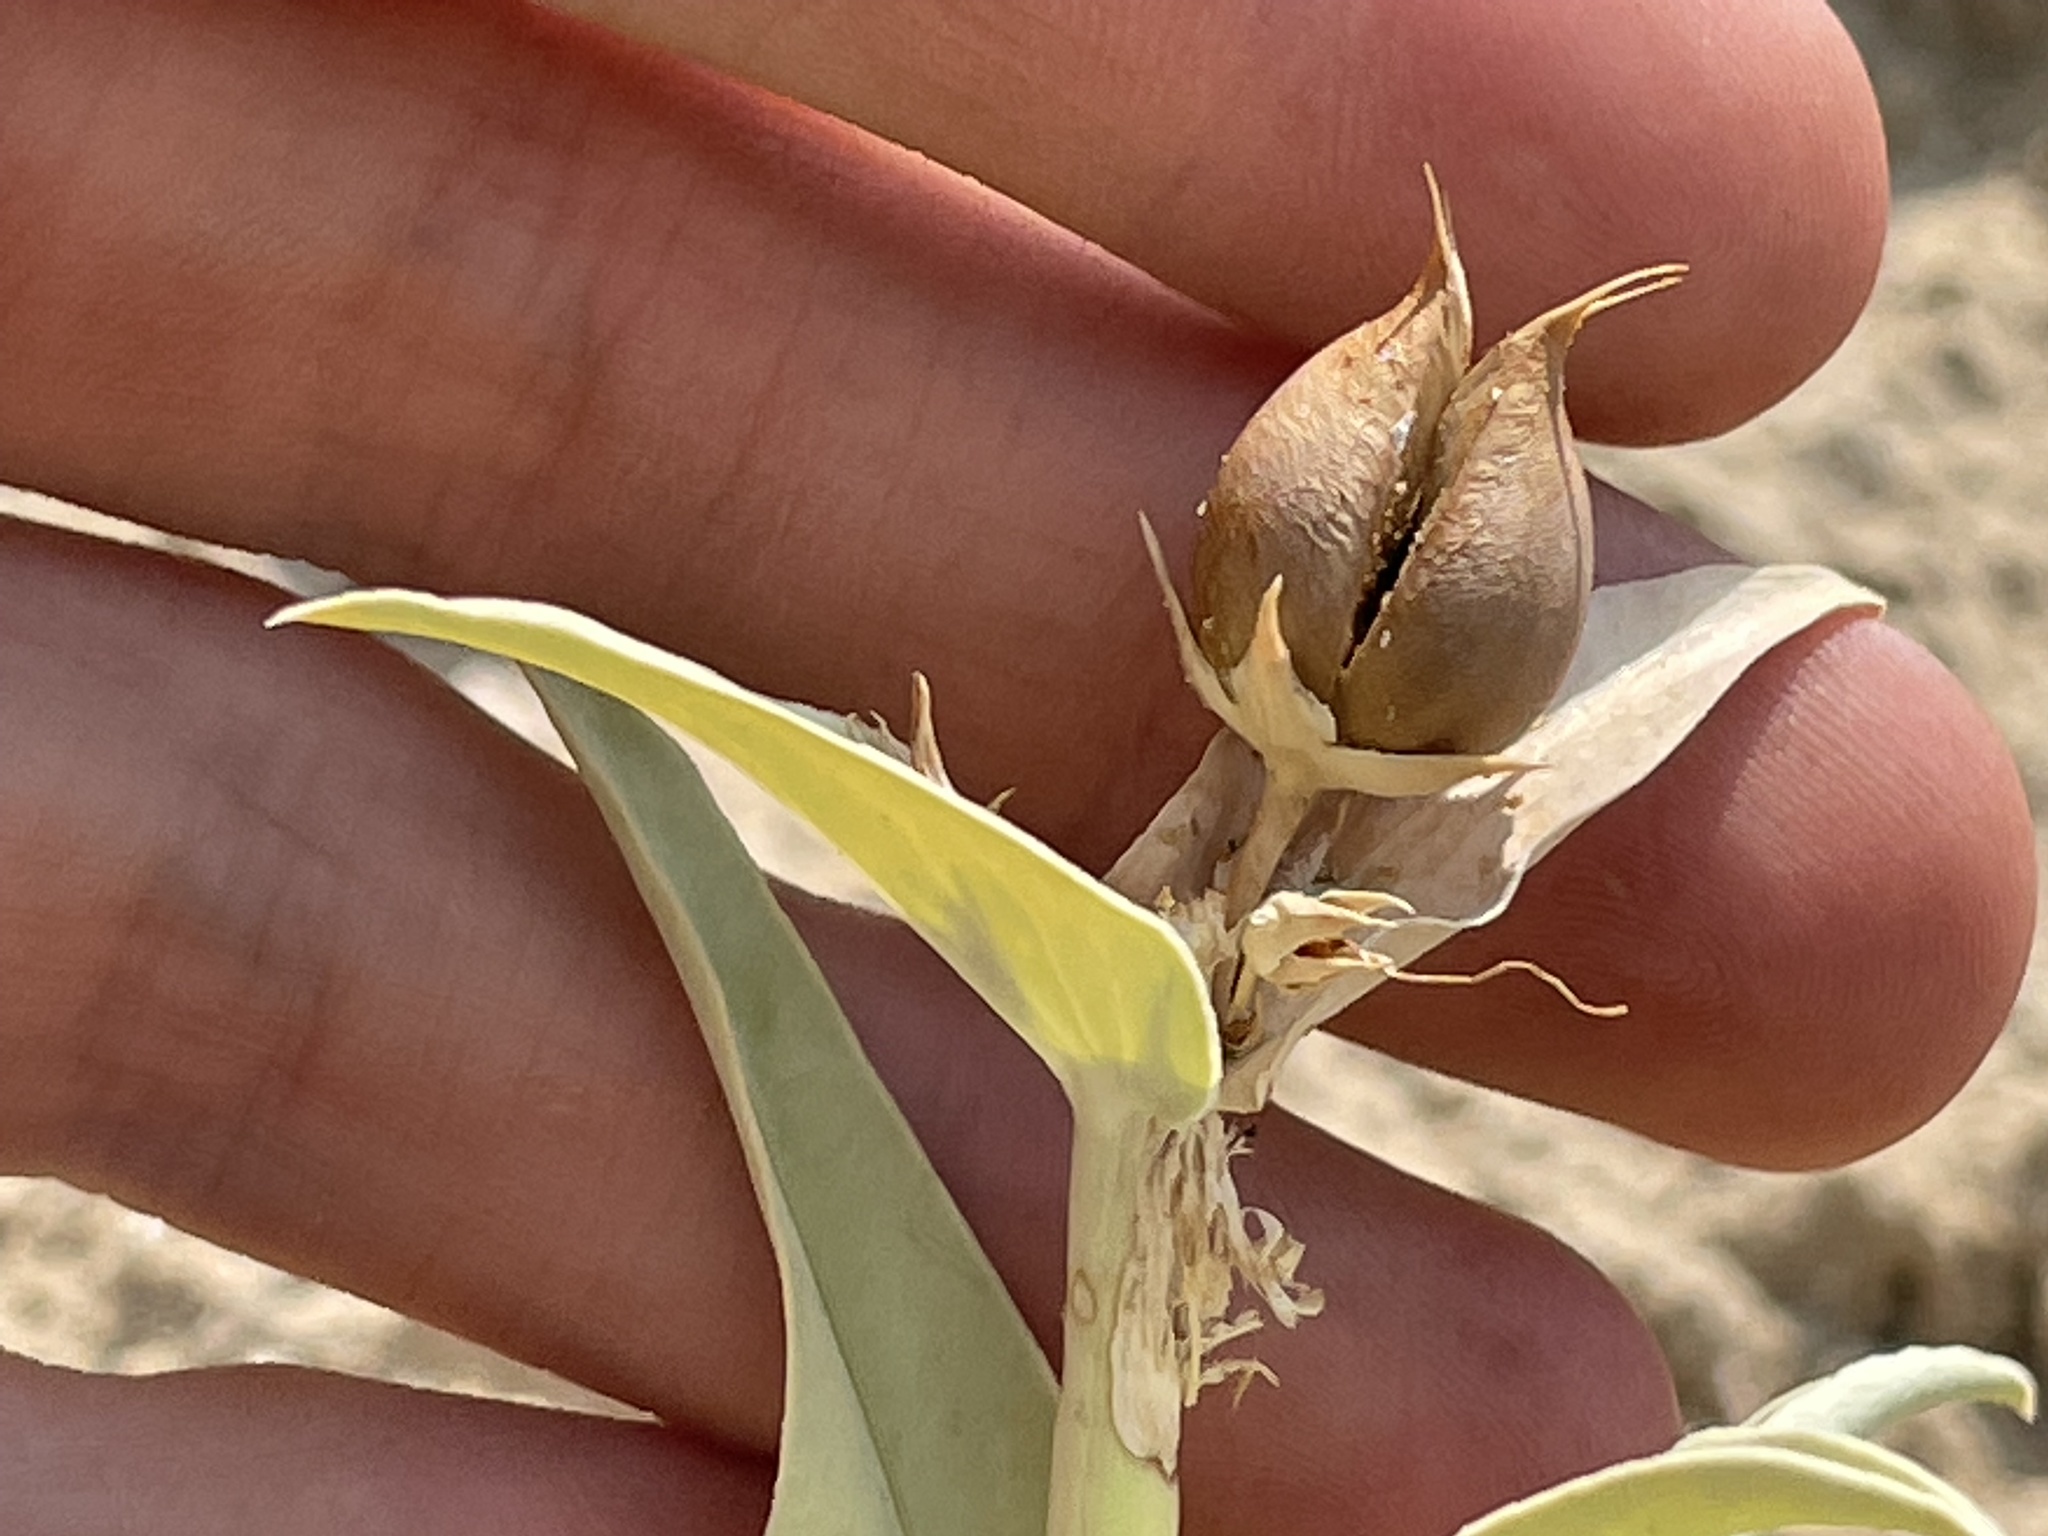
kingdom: Plantae
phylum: Tracheophyta
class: Magnoliopsida
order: Lamiales
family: Plantaginaceae
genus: Penstemon
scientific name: Penstemon angustifolius
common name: Narrow beardtongue
